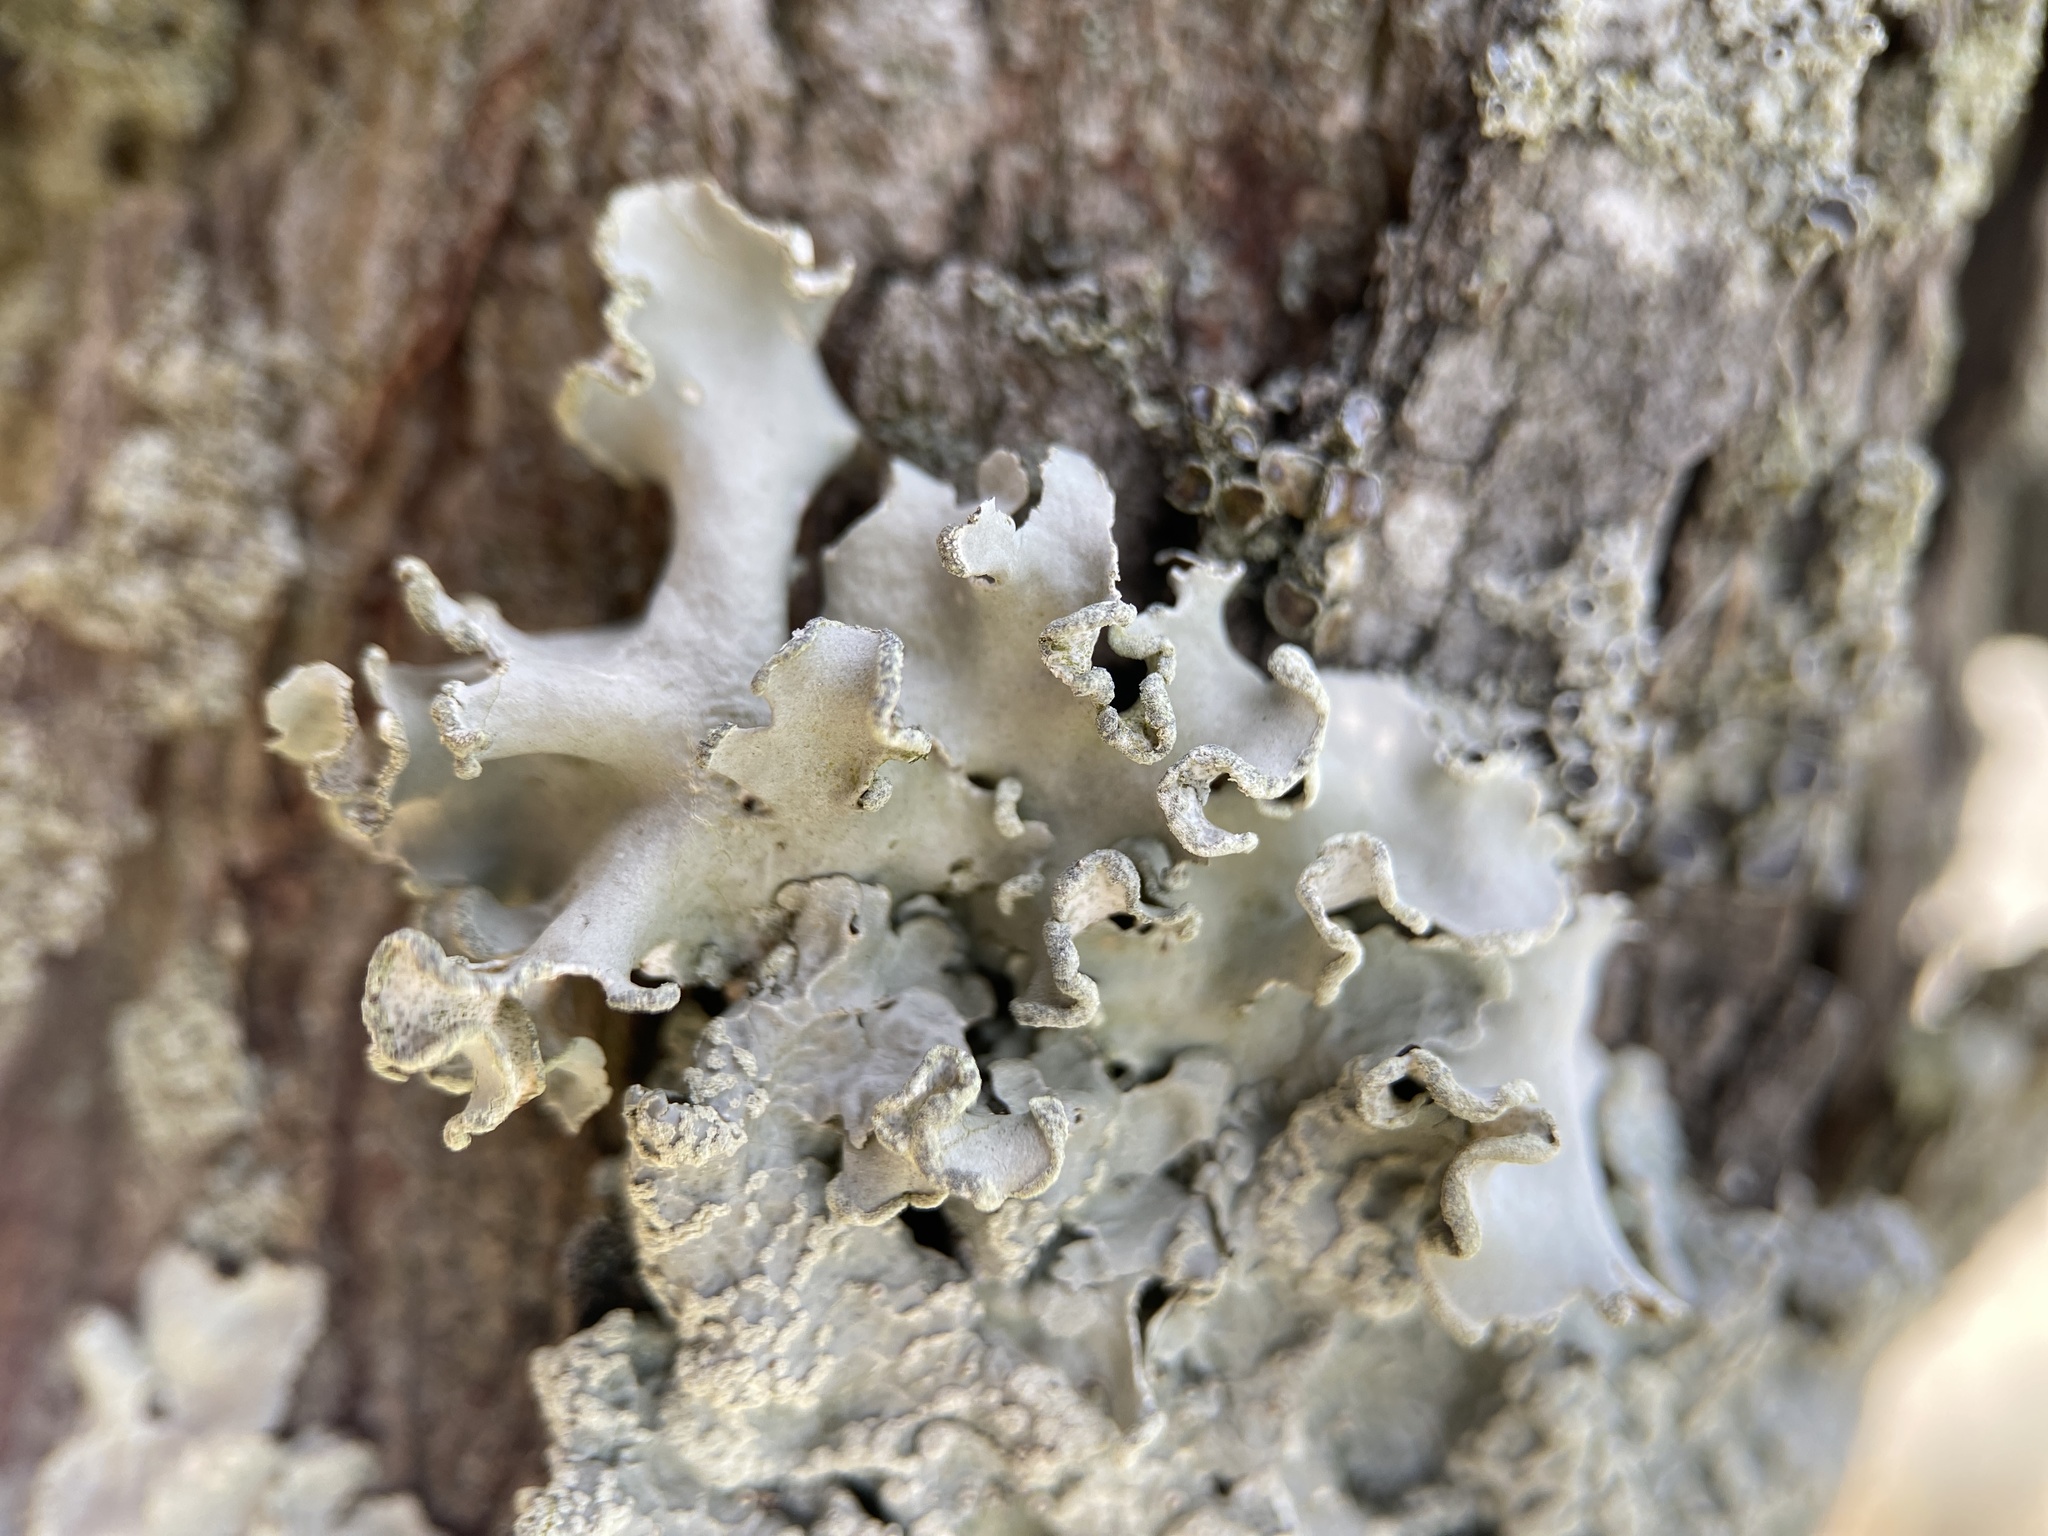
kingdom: Fungi
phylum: Ascomycota
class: Lecanoromycetes
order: Lecanorales
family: Parmeliaceae
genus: Parmotrema
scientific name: Parmotrema austrosinense
